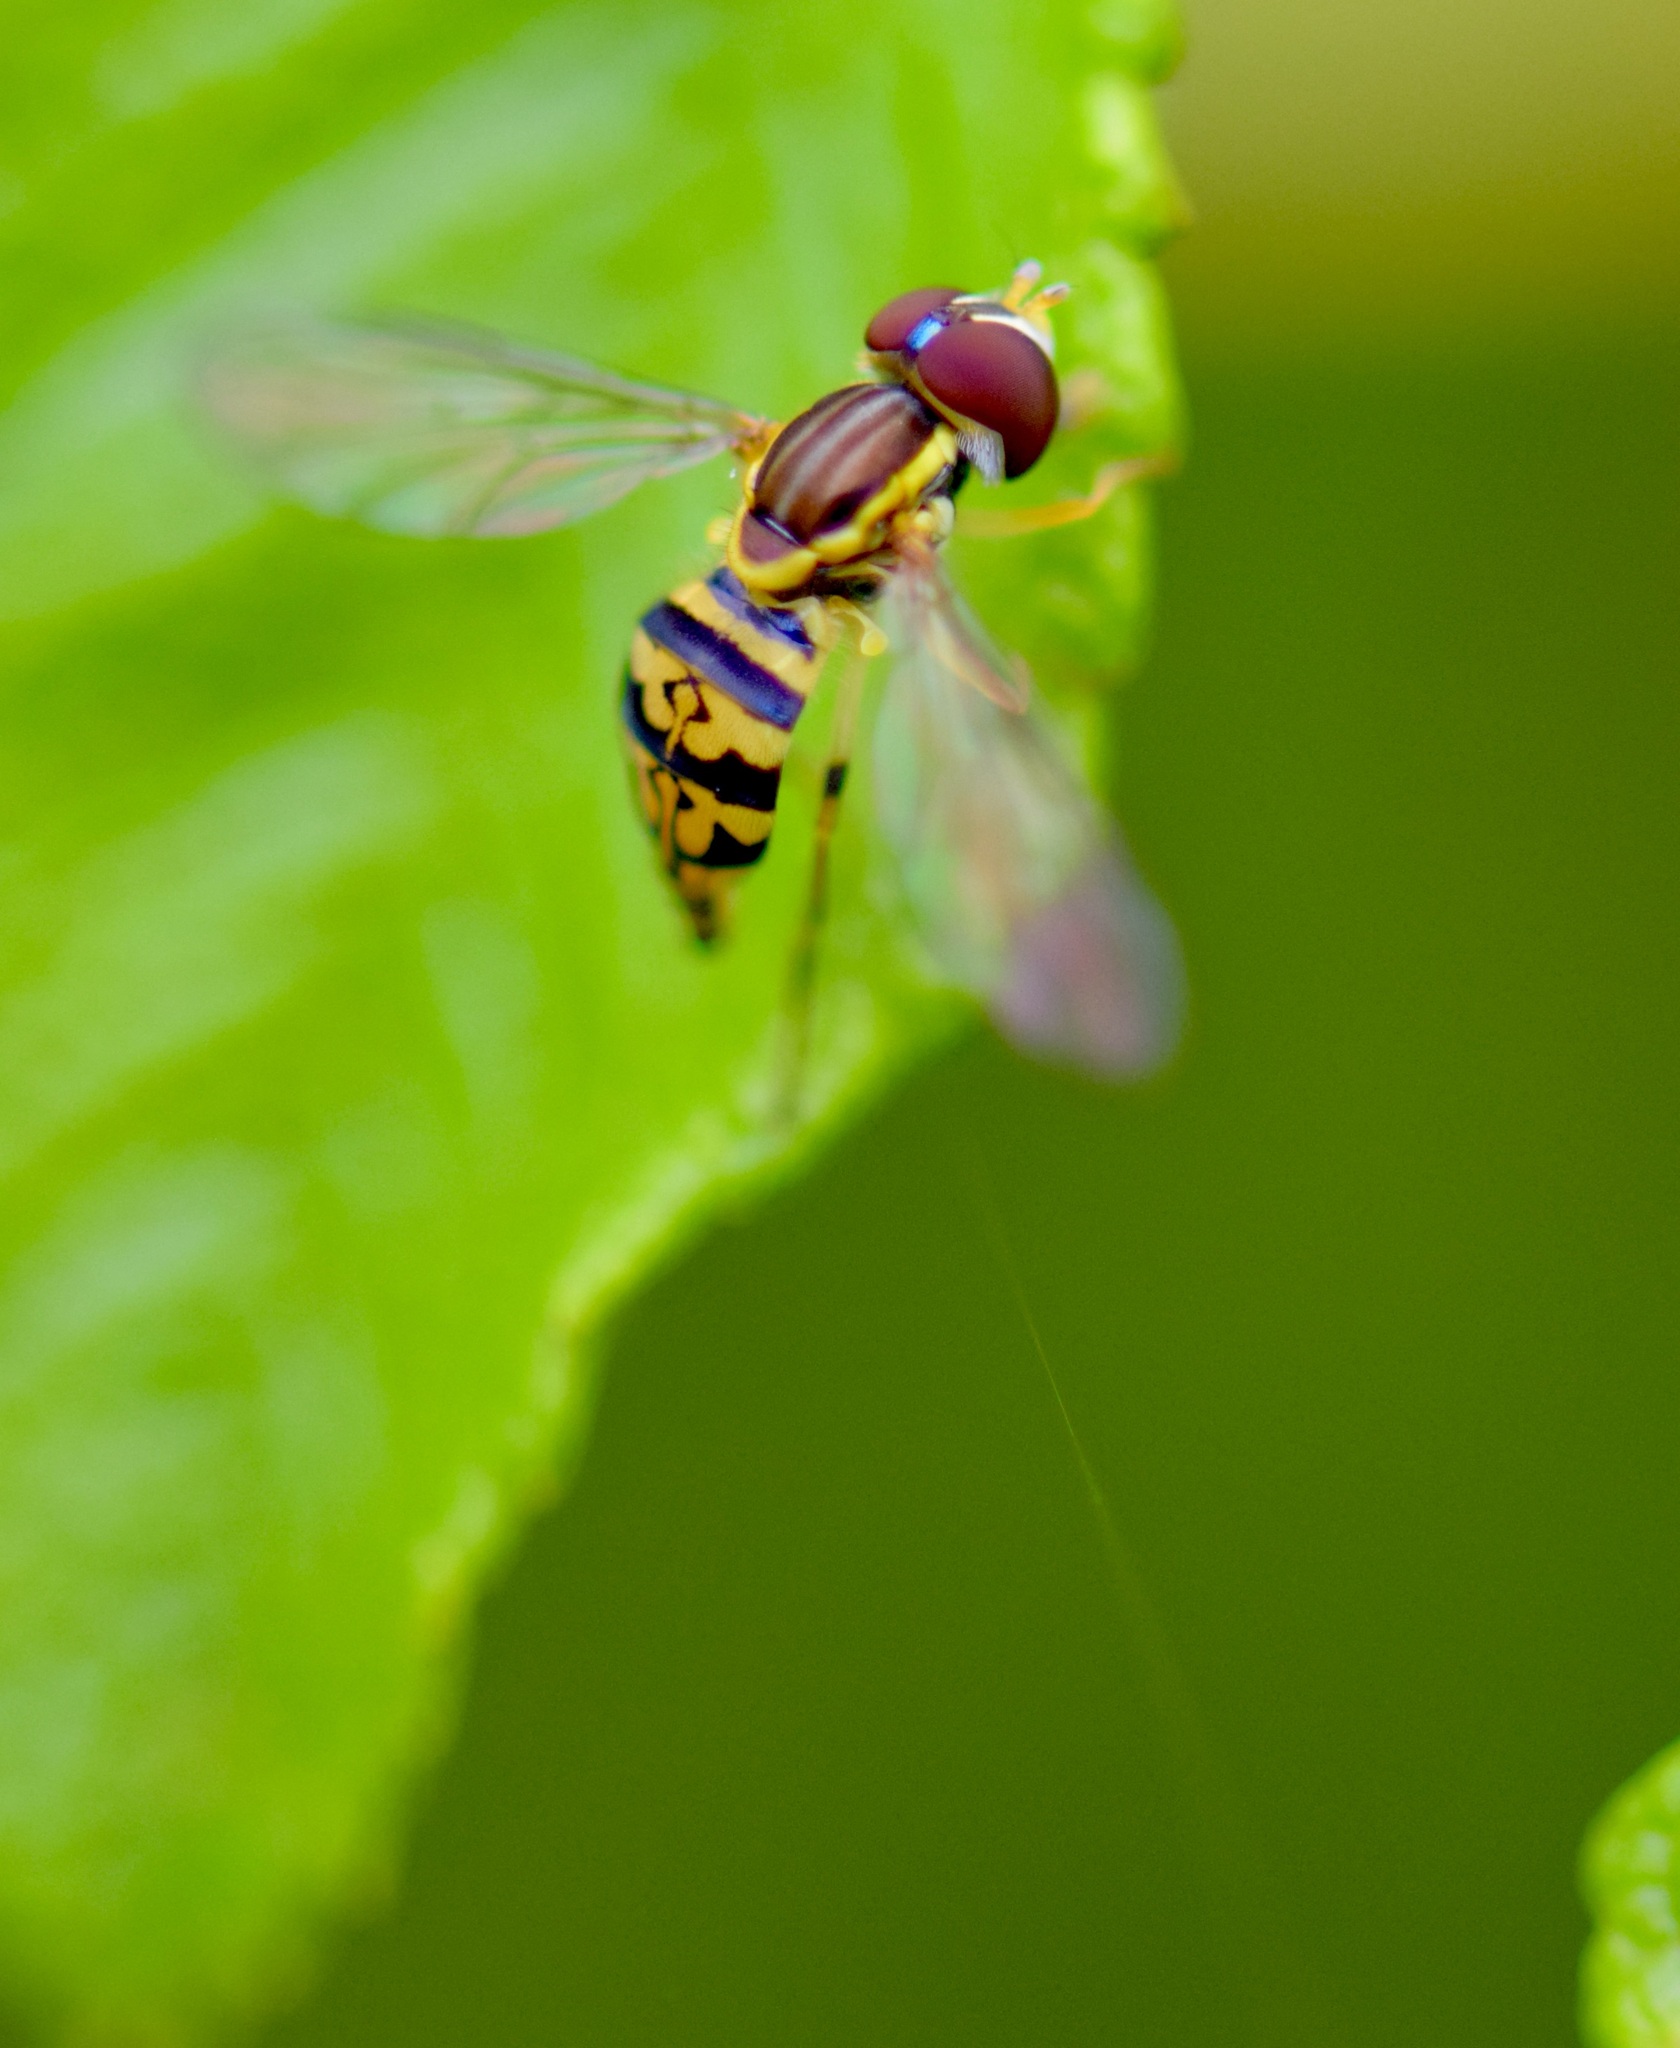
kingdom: Animalia
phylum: Arthropoda
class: Insecta
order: Diptera
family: Syrphidae
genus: Toxomerus
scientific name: Toxomerus geminatus
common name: Eastern calligrapher
